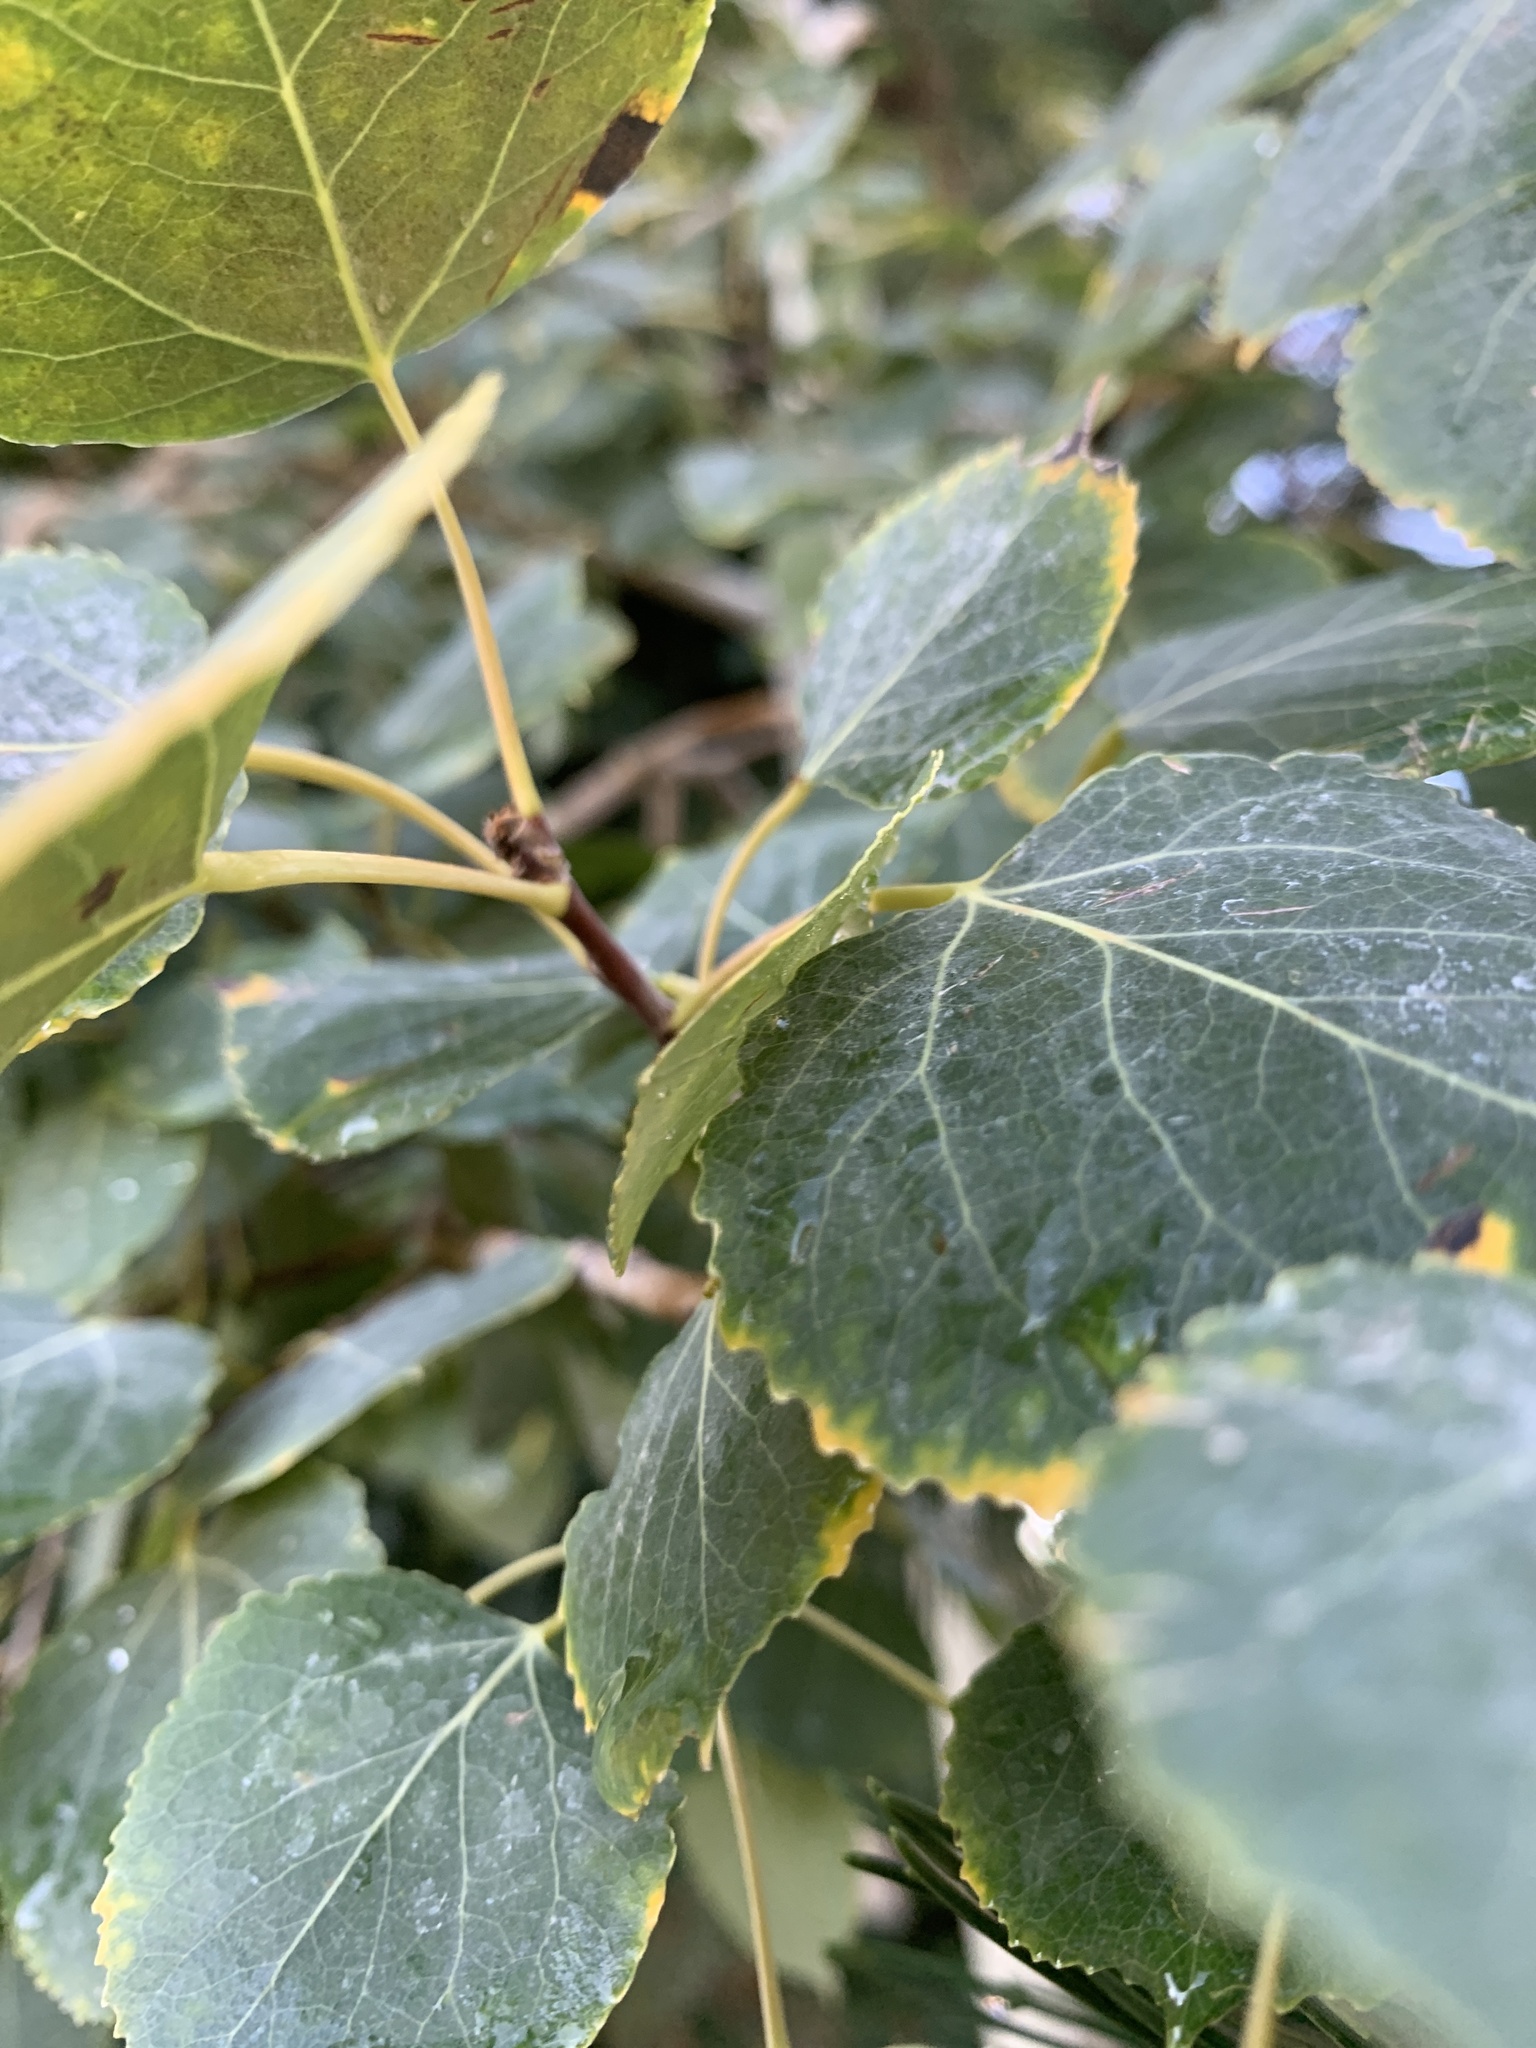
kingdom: Plantae
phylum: Tracheophyta
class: Magnoliopsida
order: Malpighiales
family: Salicaceae
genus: Populus
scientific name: Populus tremuloides
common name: Quaking aspen
